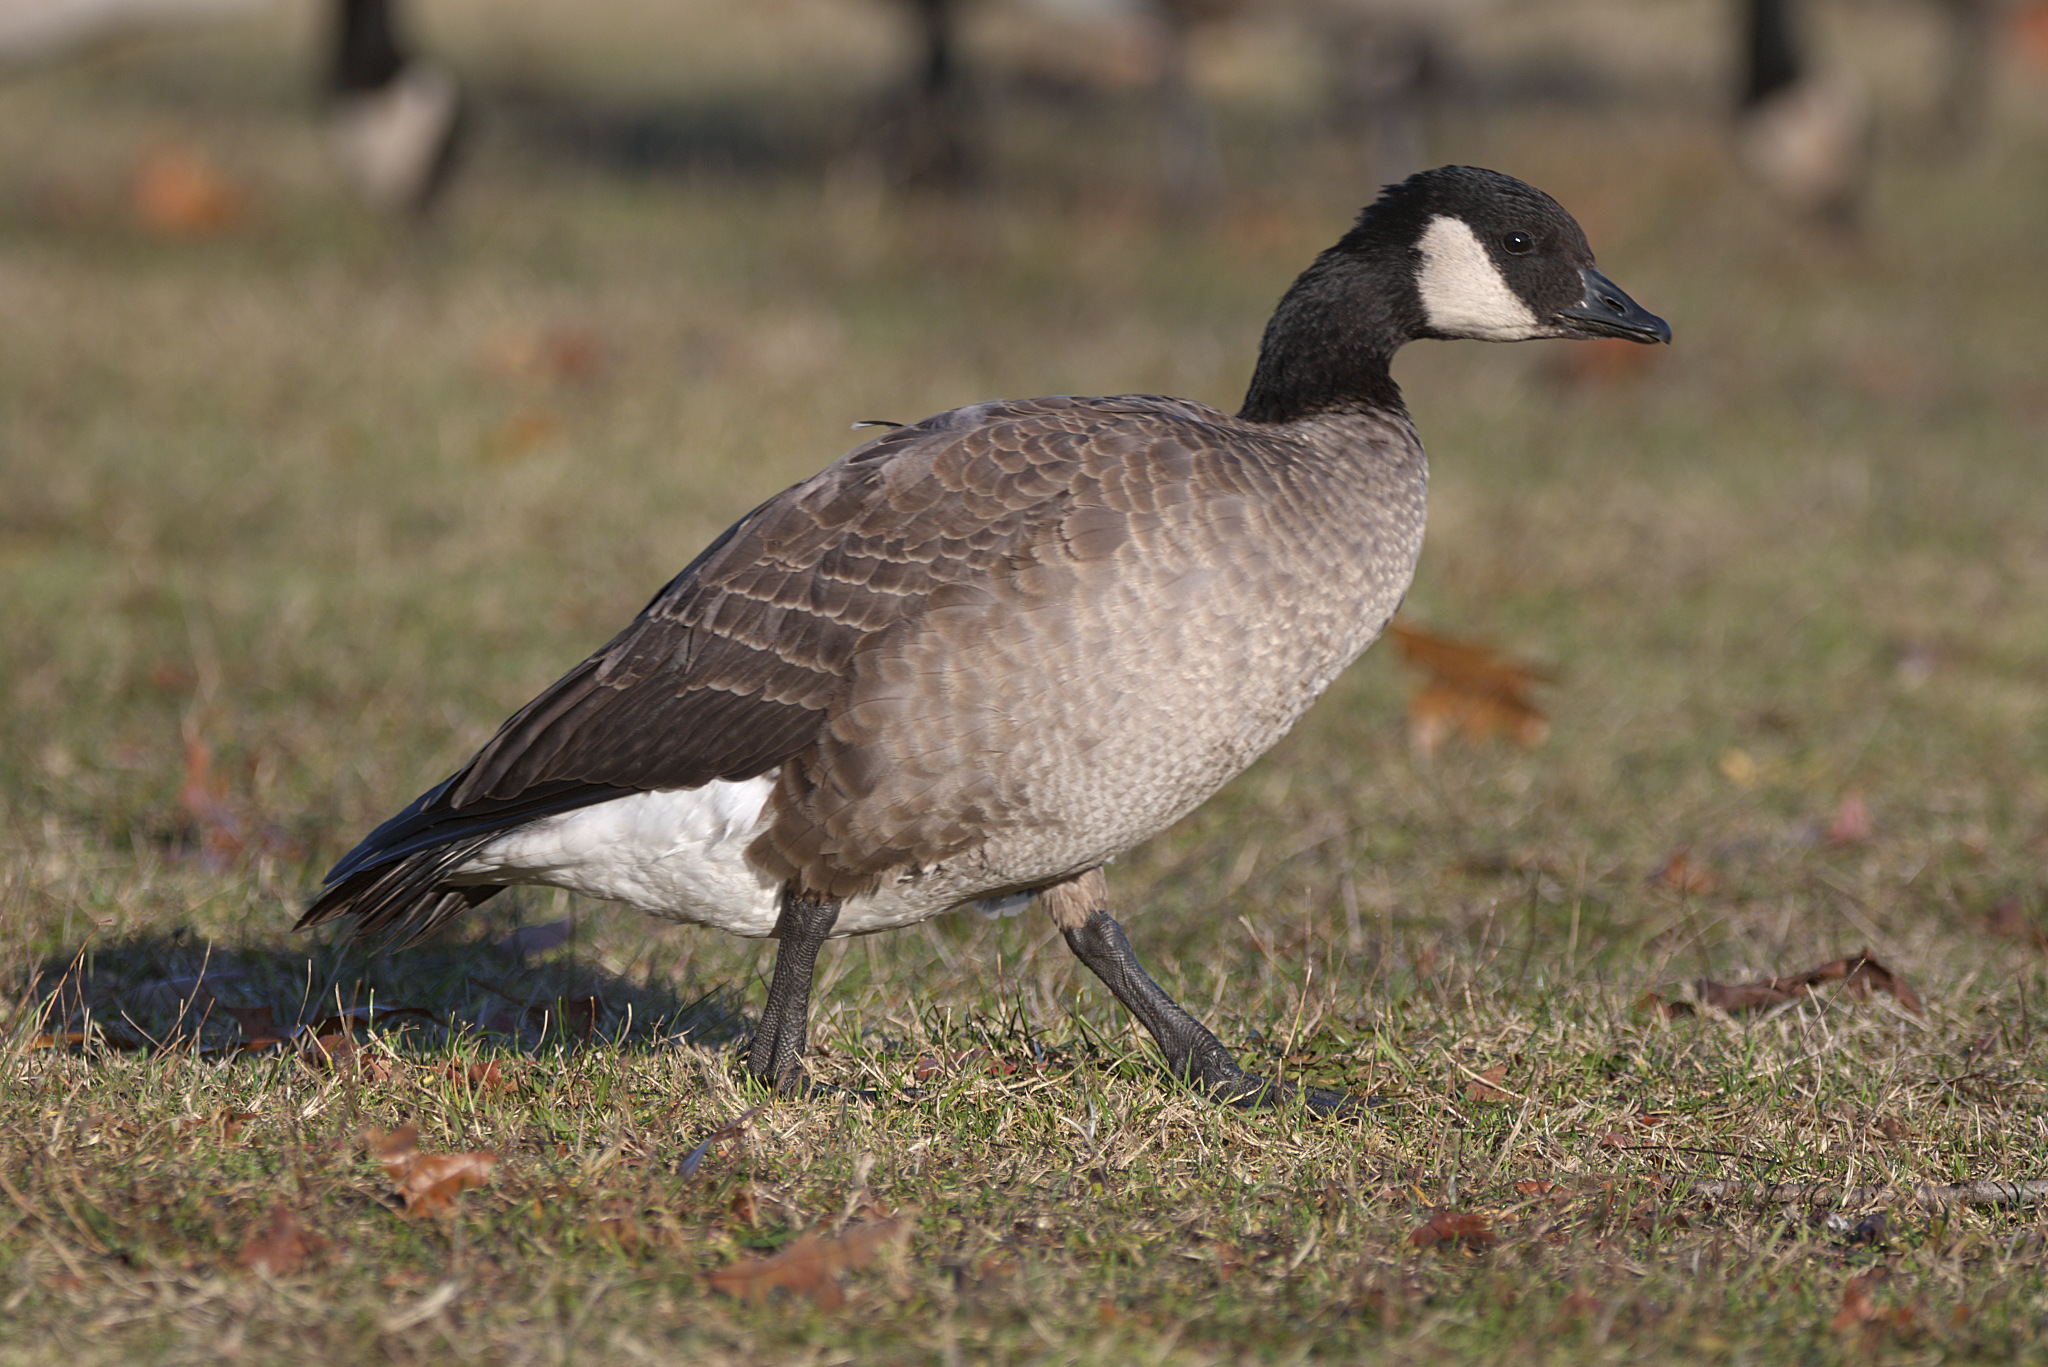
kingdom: Animalia
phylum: Chordata
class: Aves
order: Anseriformes
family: Anatidae
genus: Branta
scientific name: Branta hutchinsii
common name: Cackling goose
